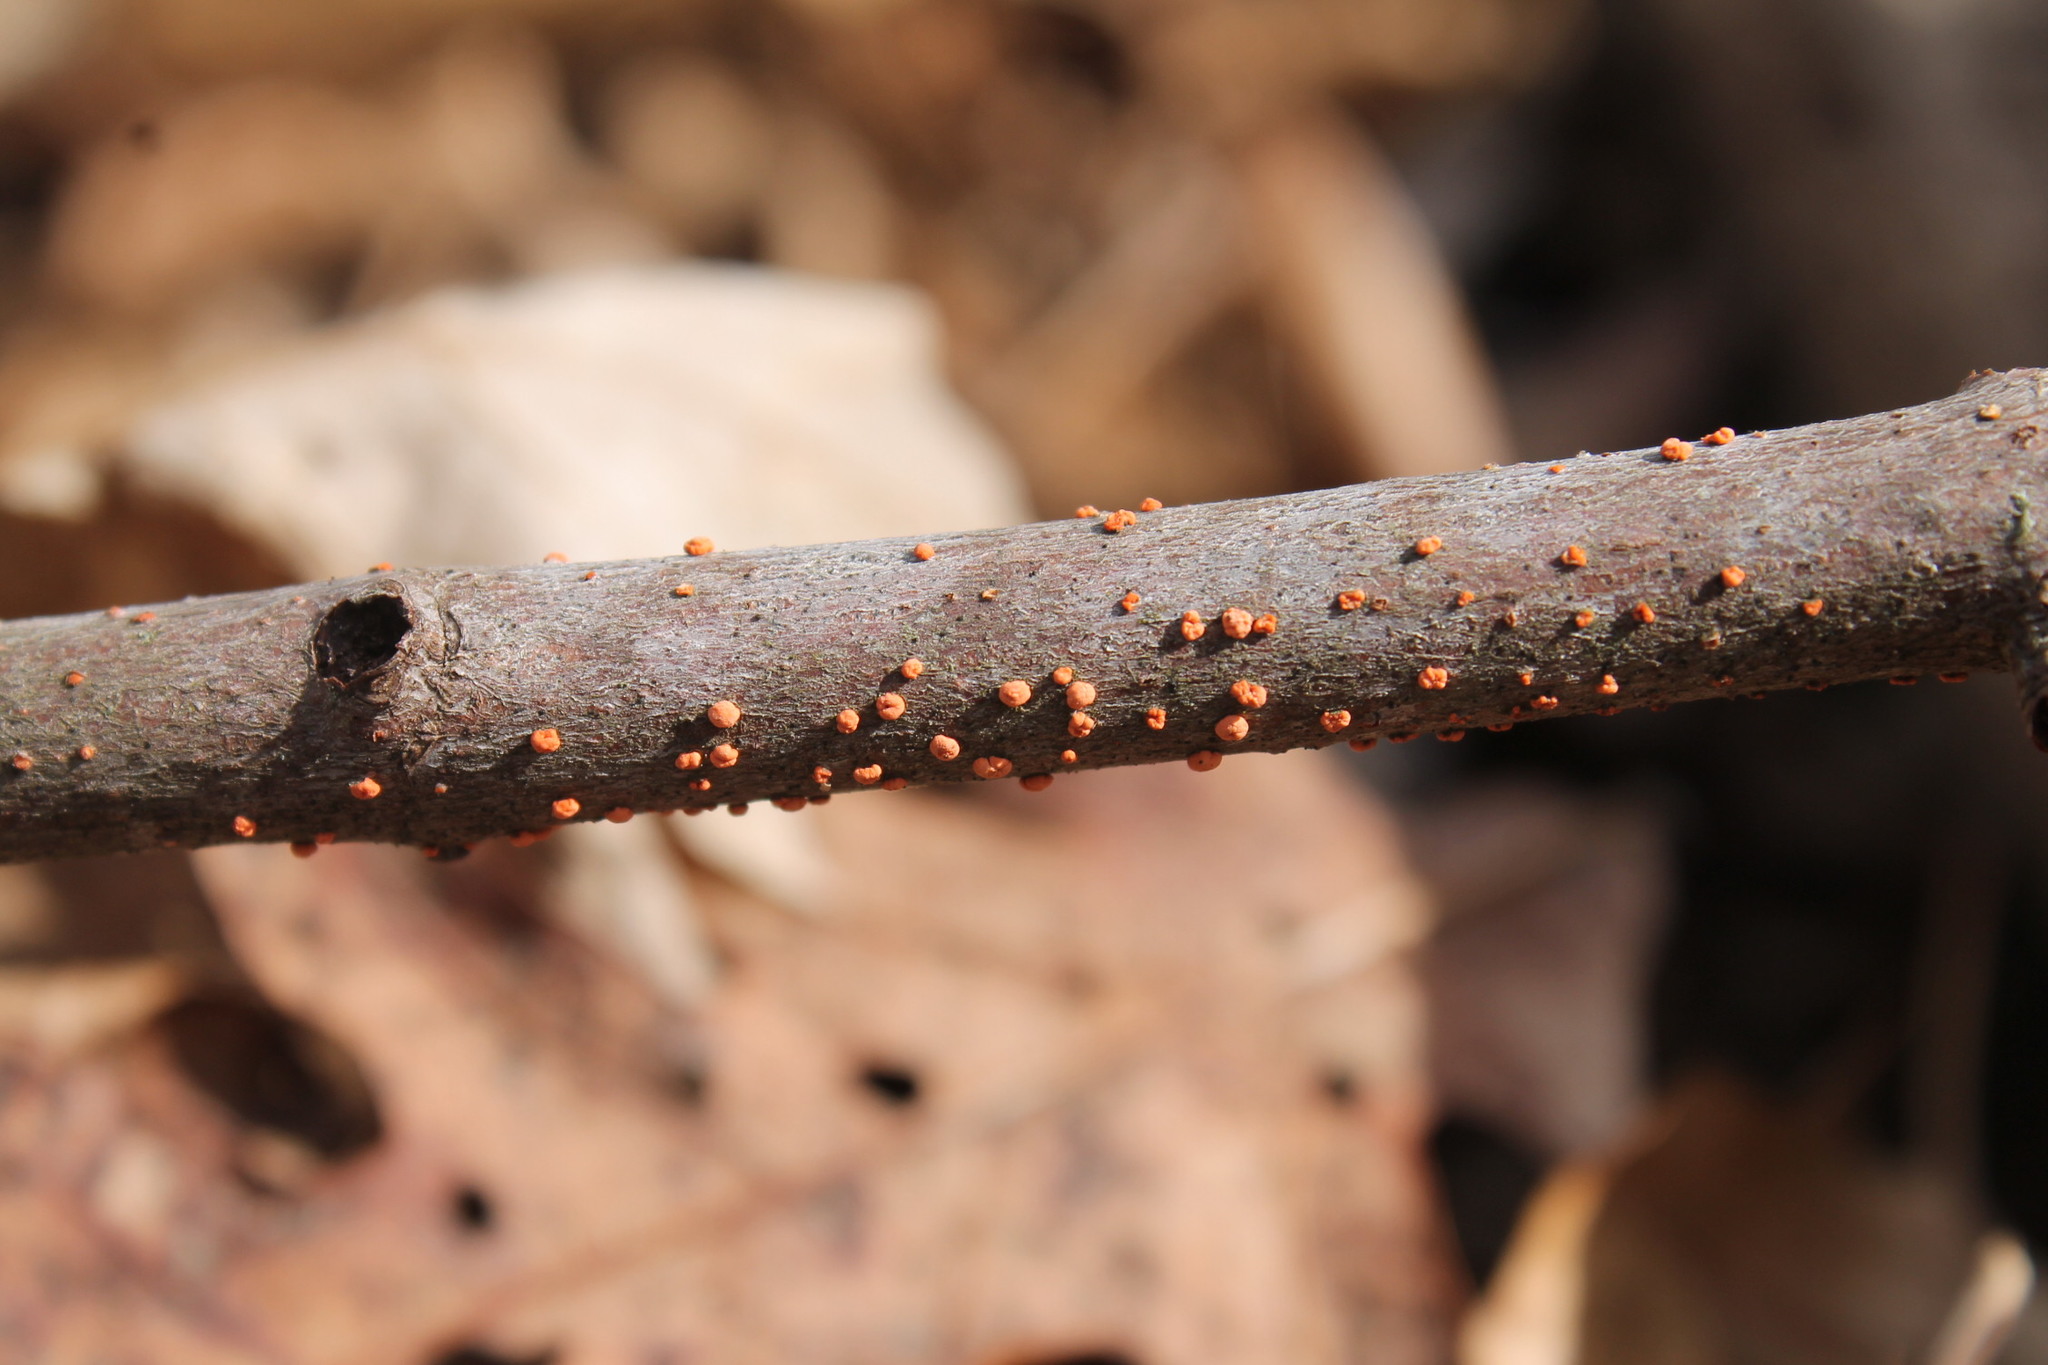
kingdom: Fungi
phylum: Ascomycota
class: Sordariomycetes
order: Hypocreales
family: Nectriaceae
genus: Nectria
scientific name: Nectria cinnabarina
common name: Coral spot
